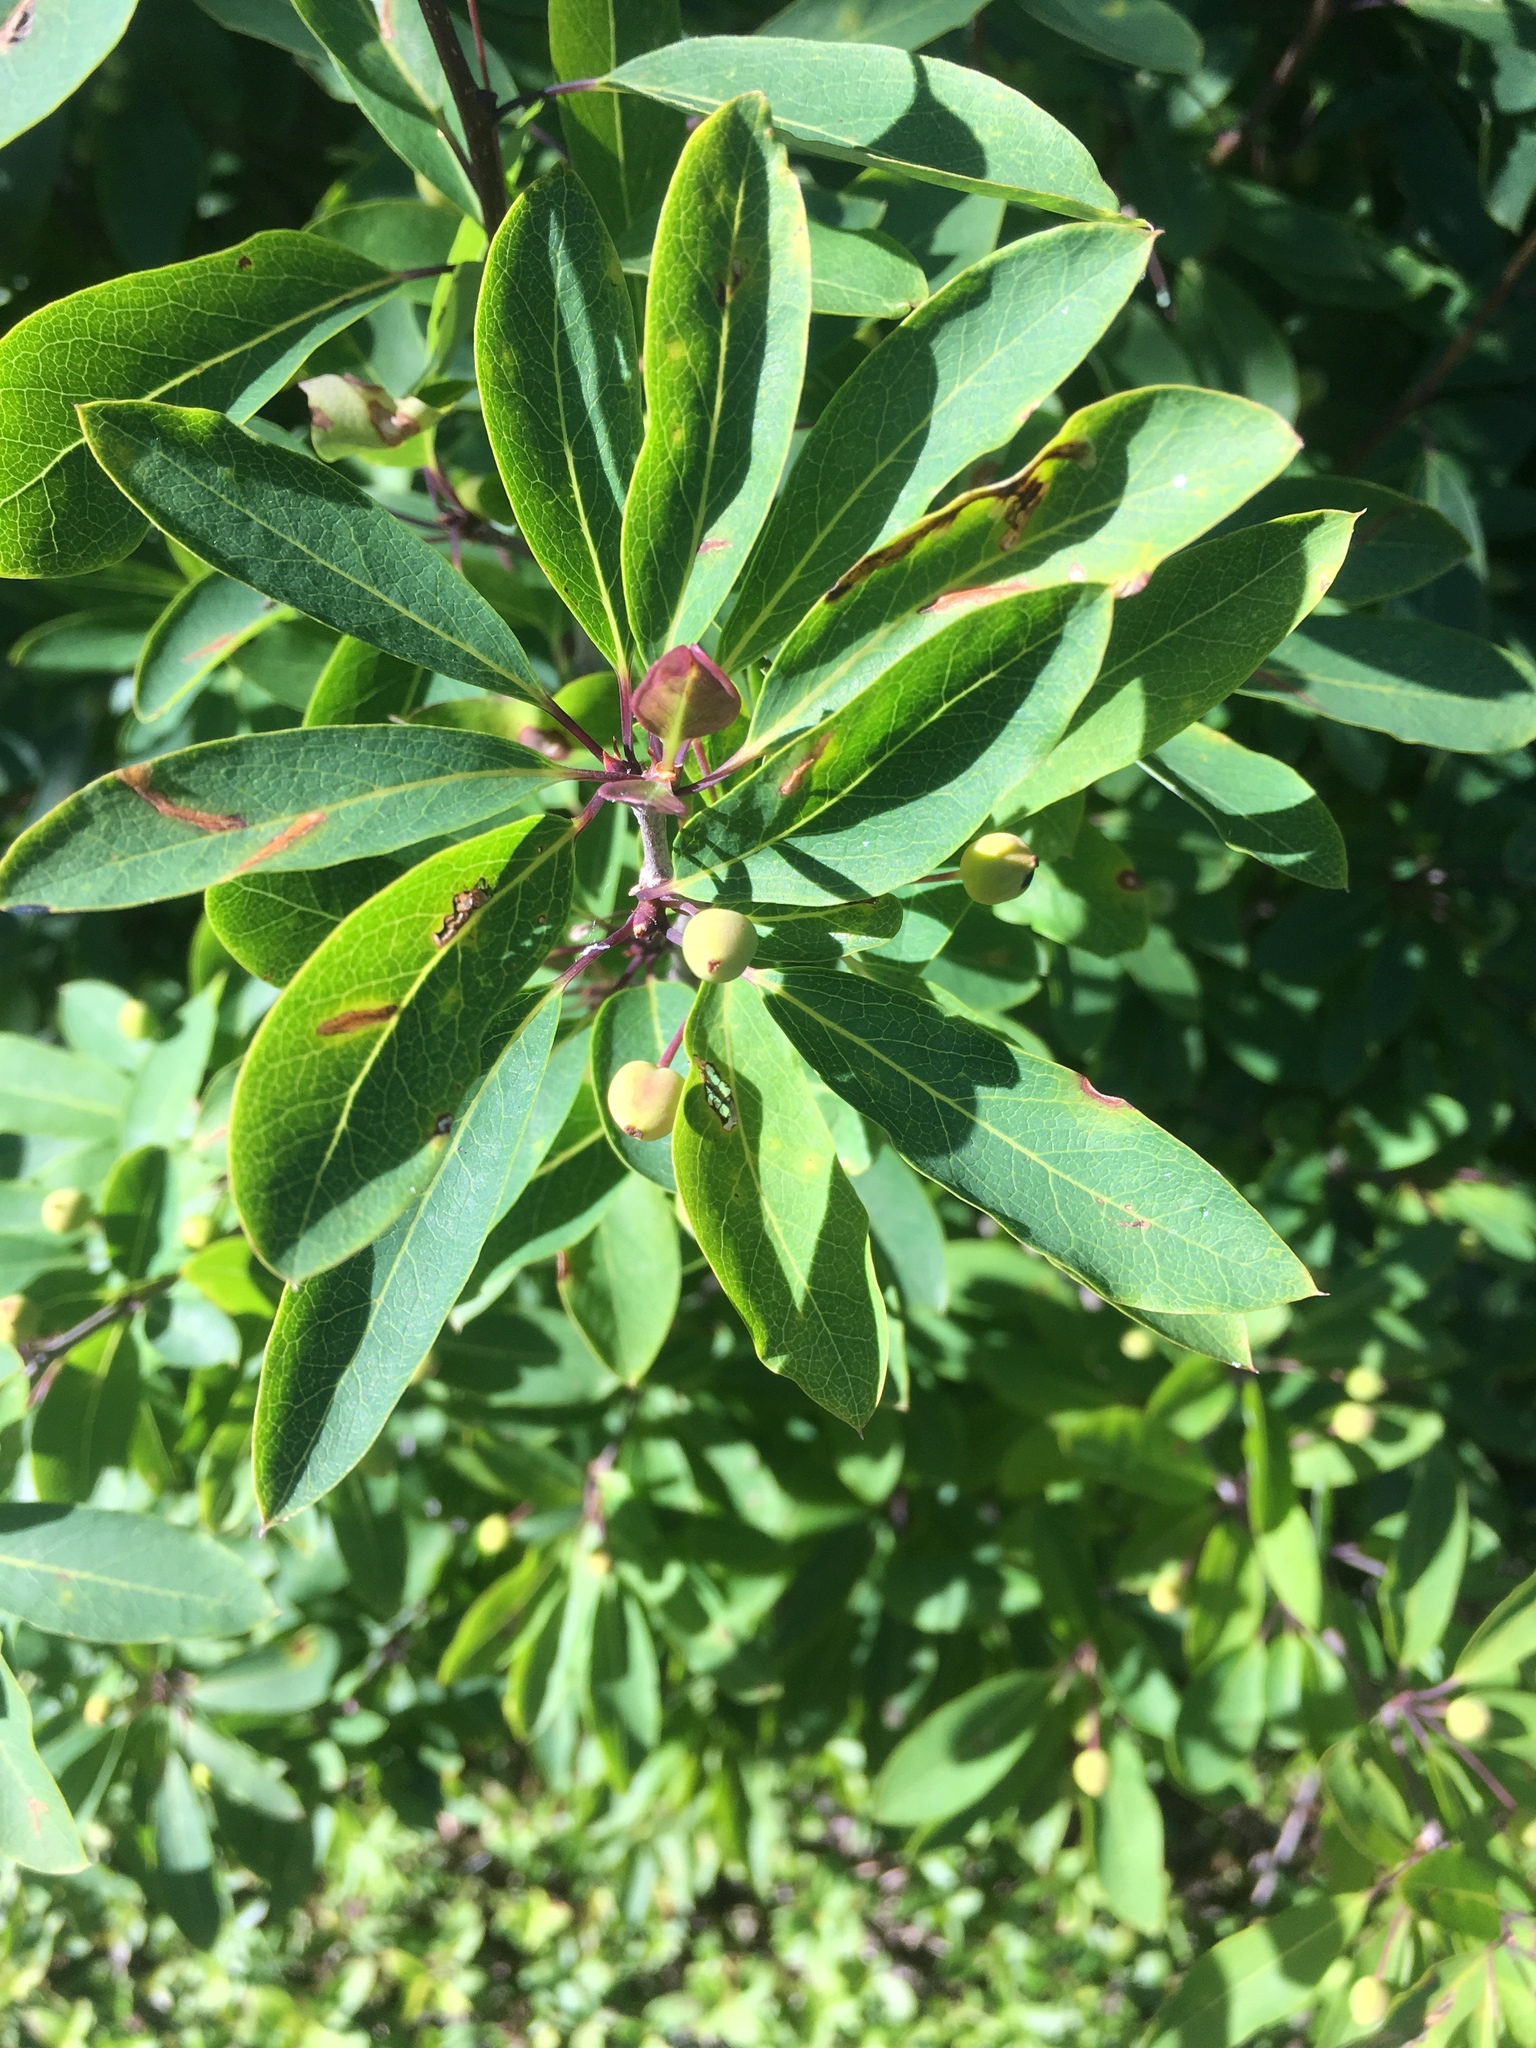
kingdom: Plantae
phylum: Tracheophyta
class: Magnoliopsida
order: Aquifoliales
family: Aquifoliaceae
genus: Ilex
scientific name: Ilex mucronata
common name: Catberry
